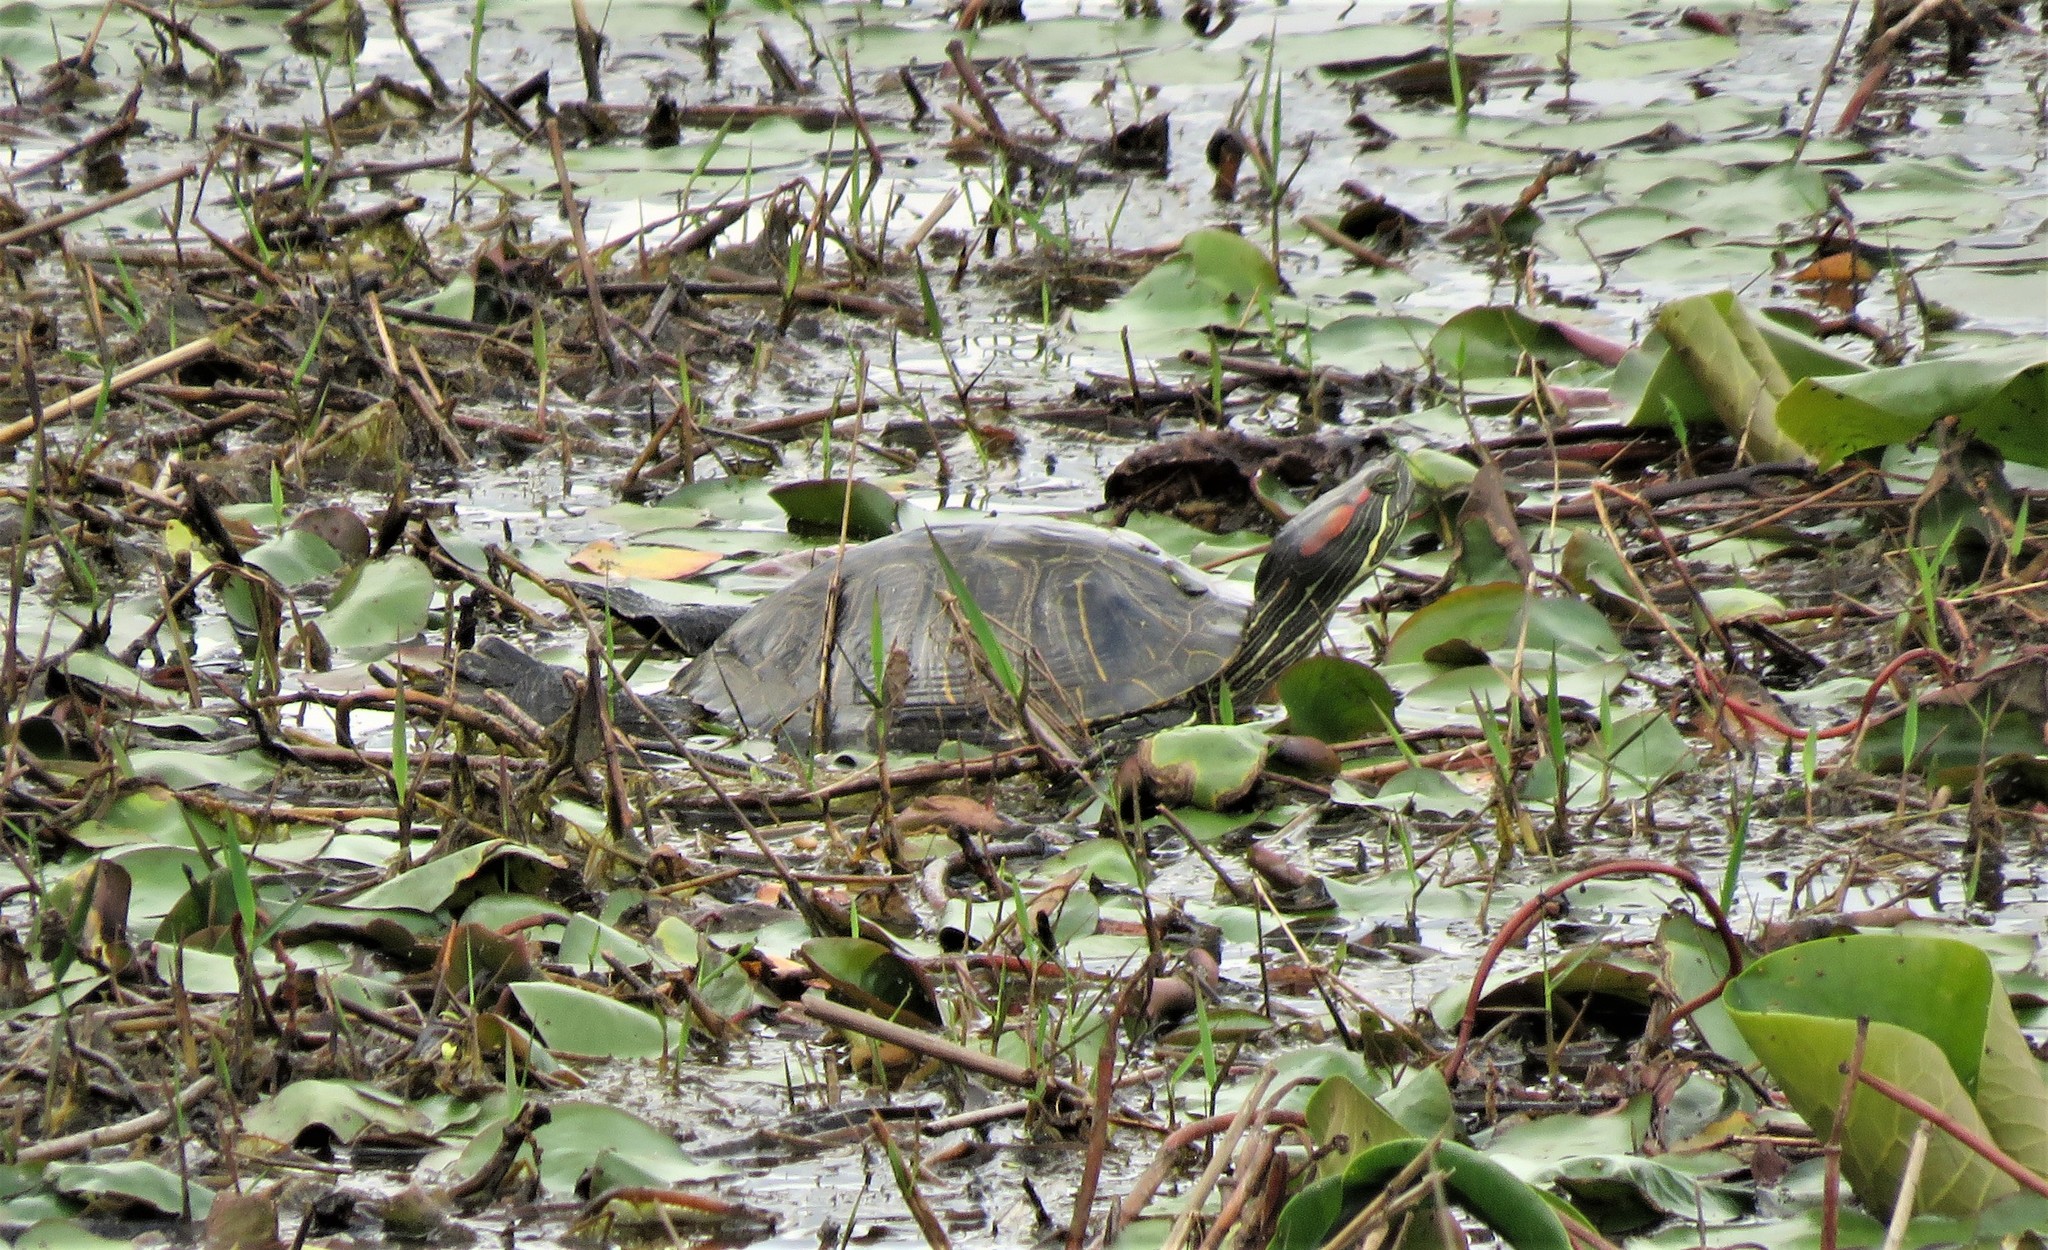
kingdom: Animalia
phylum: Chordata
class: Testudines
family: Emydidae
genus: Trachemys
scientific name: Trachemys scripta
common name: Slider
